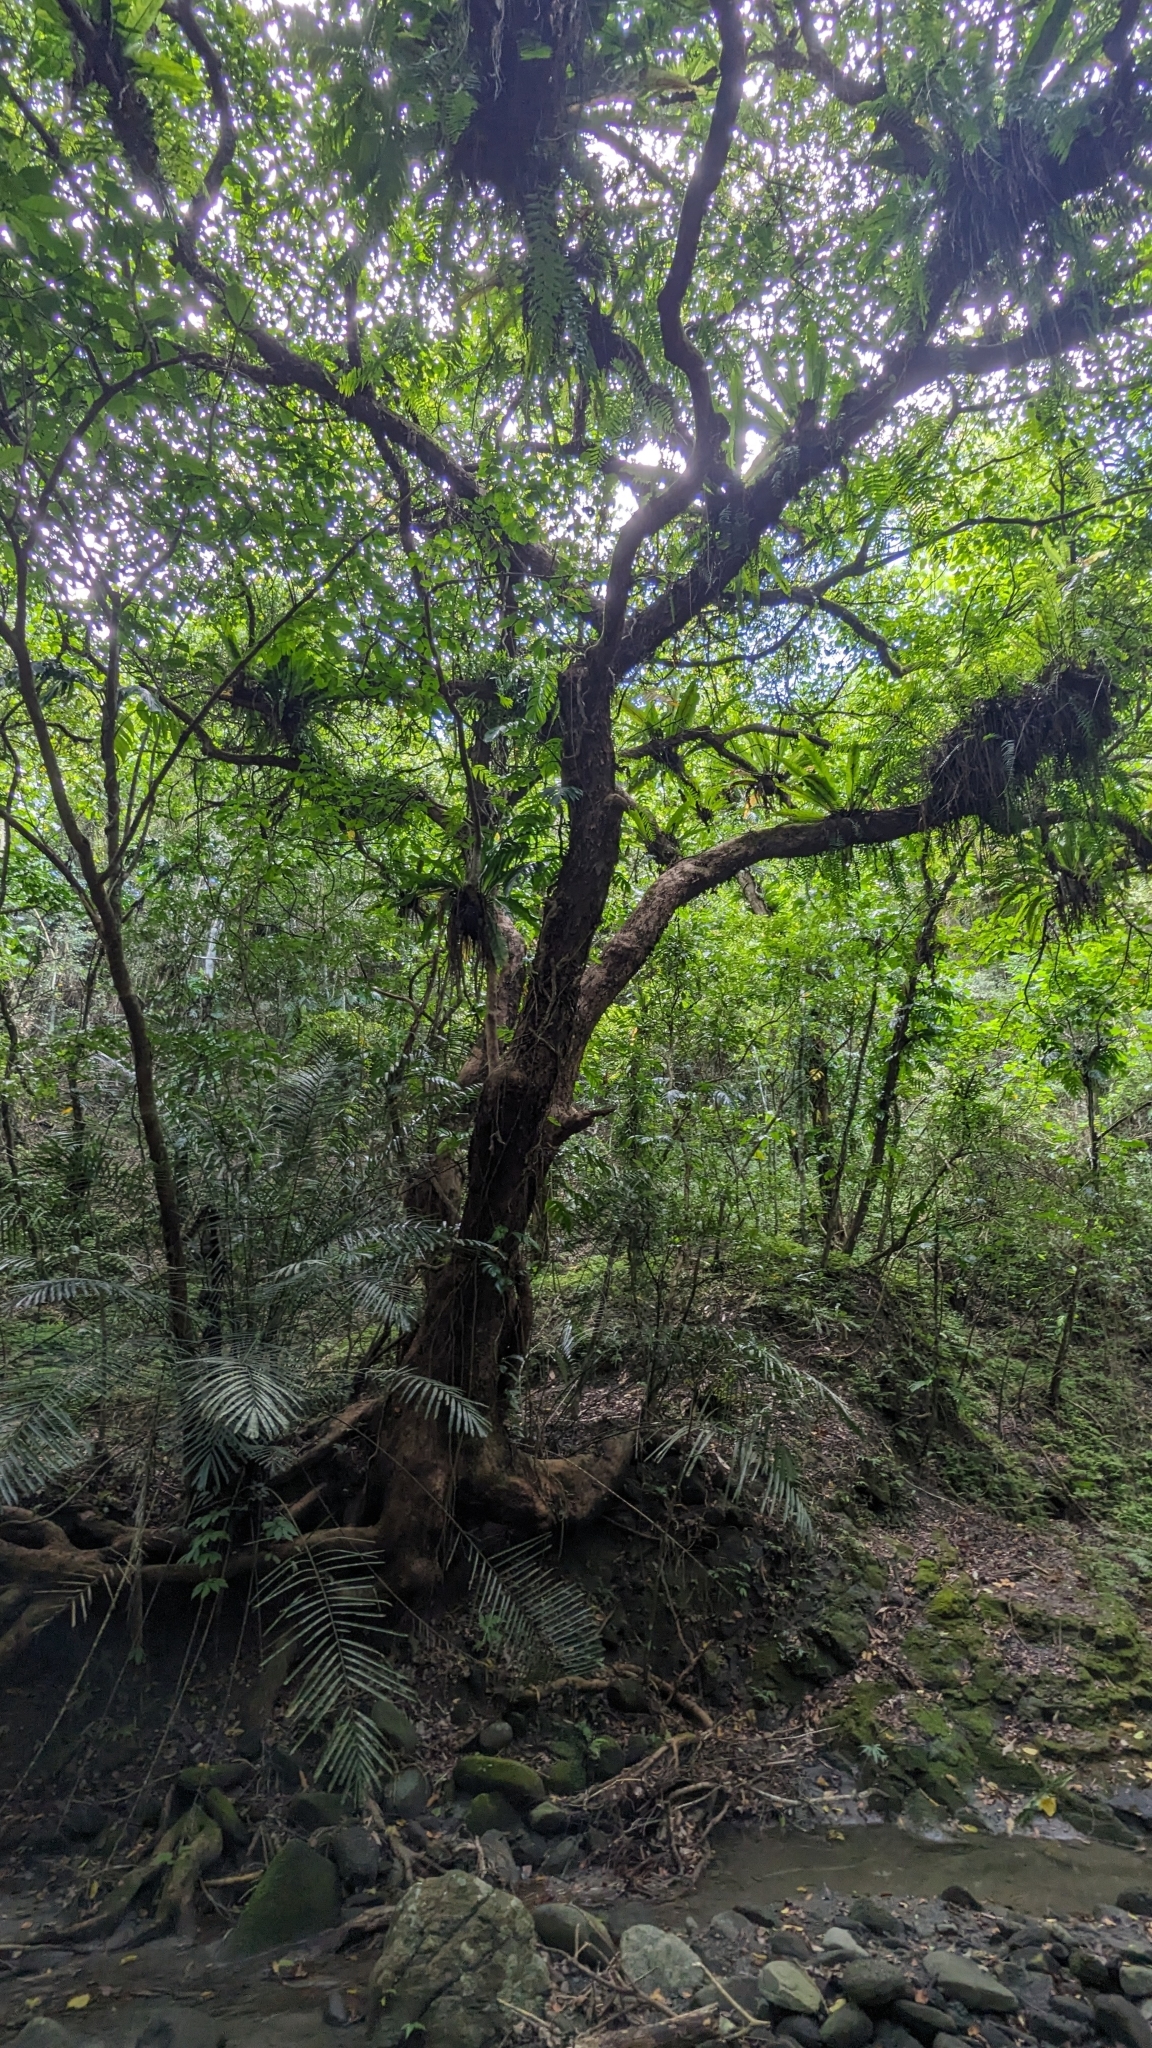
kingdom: Plantae
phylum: Tracheophyta
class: Magnoliopsida
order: Malpighiales
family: Phyllanthaceae
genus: Bischofia
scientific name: Bischofia javanica
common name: Javanese bishopwood
